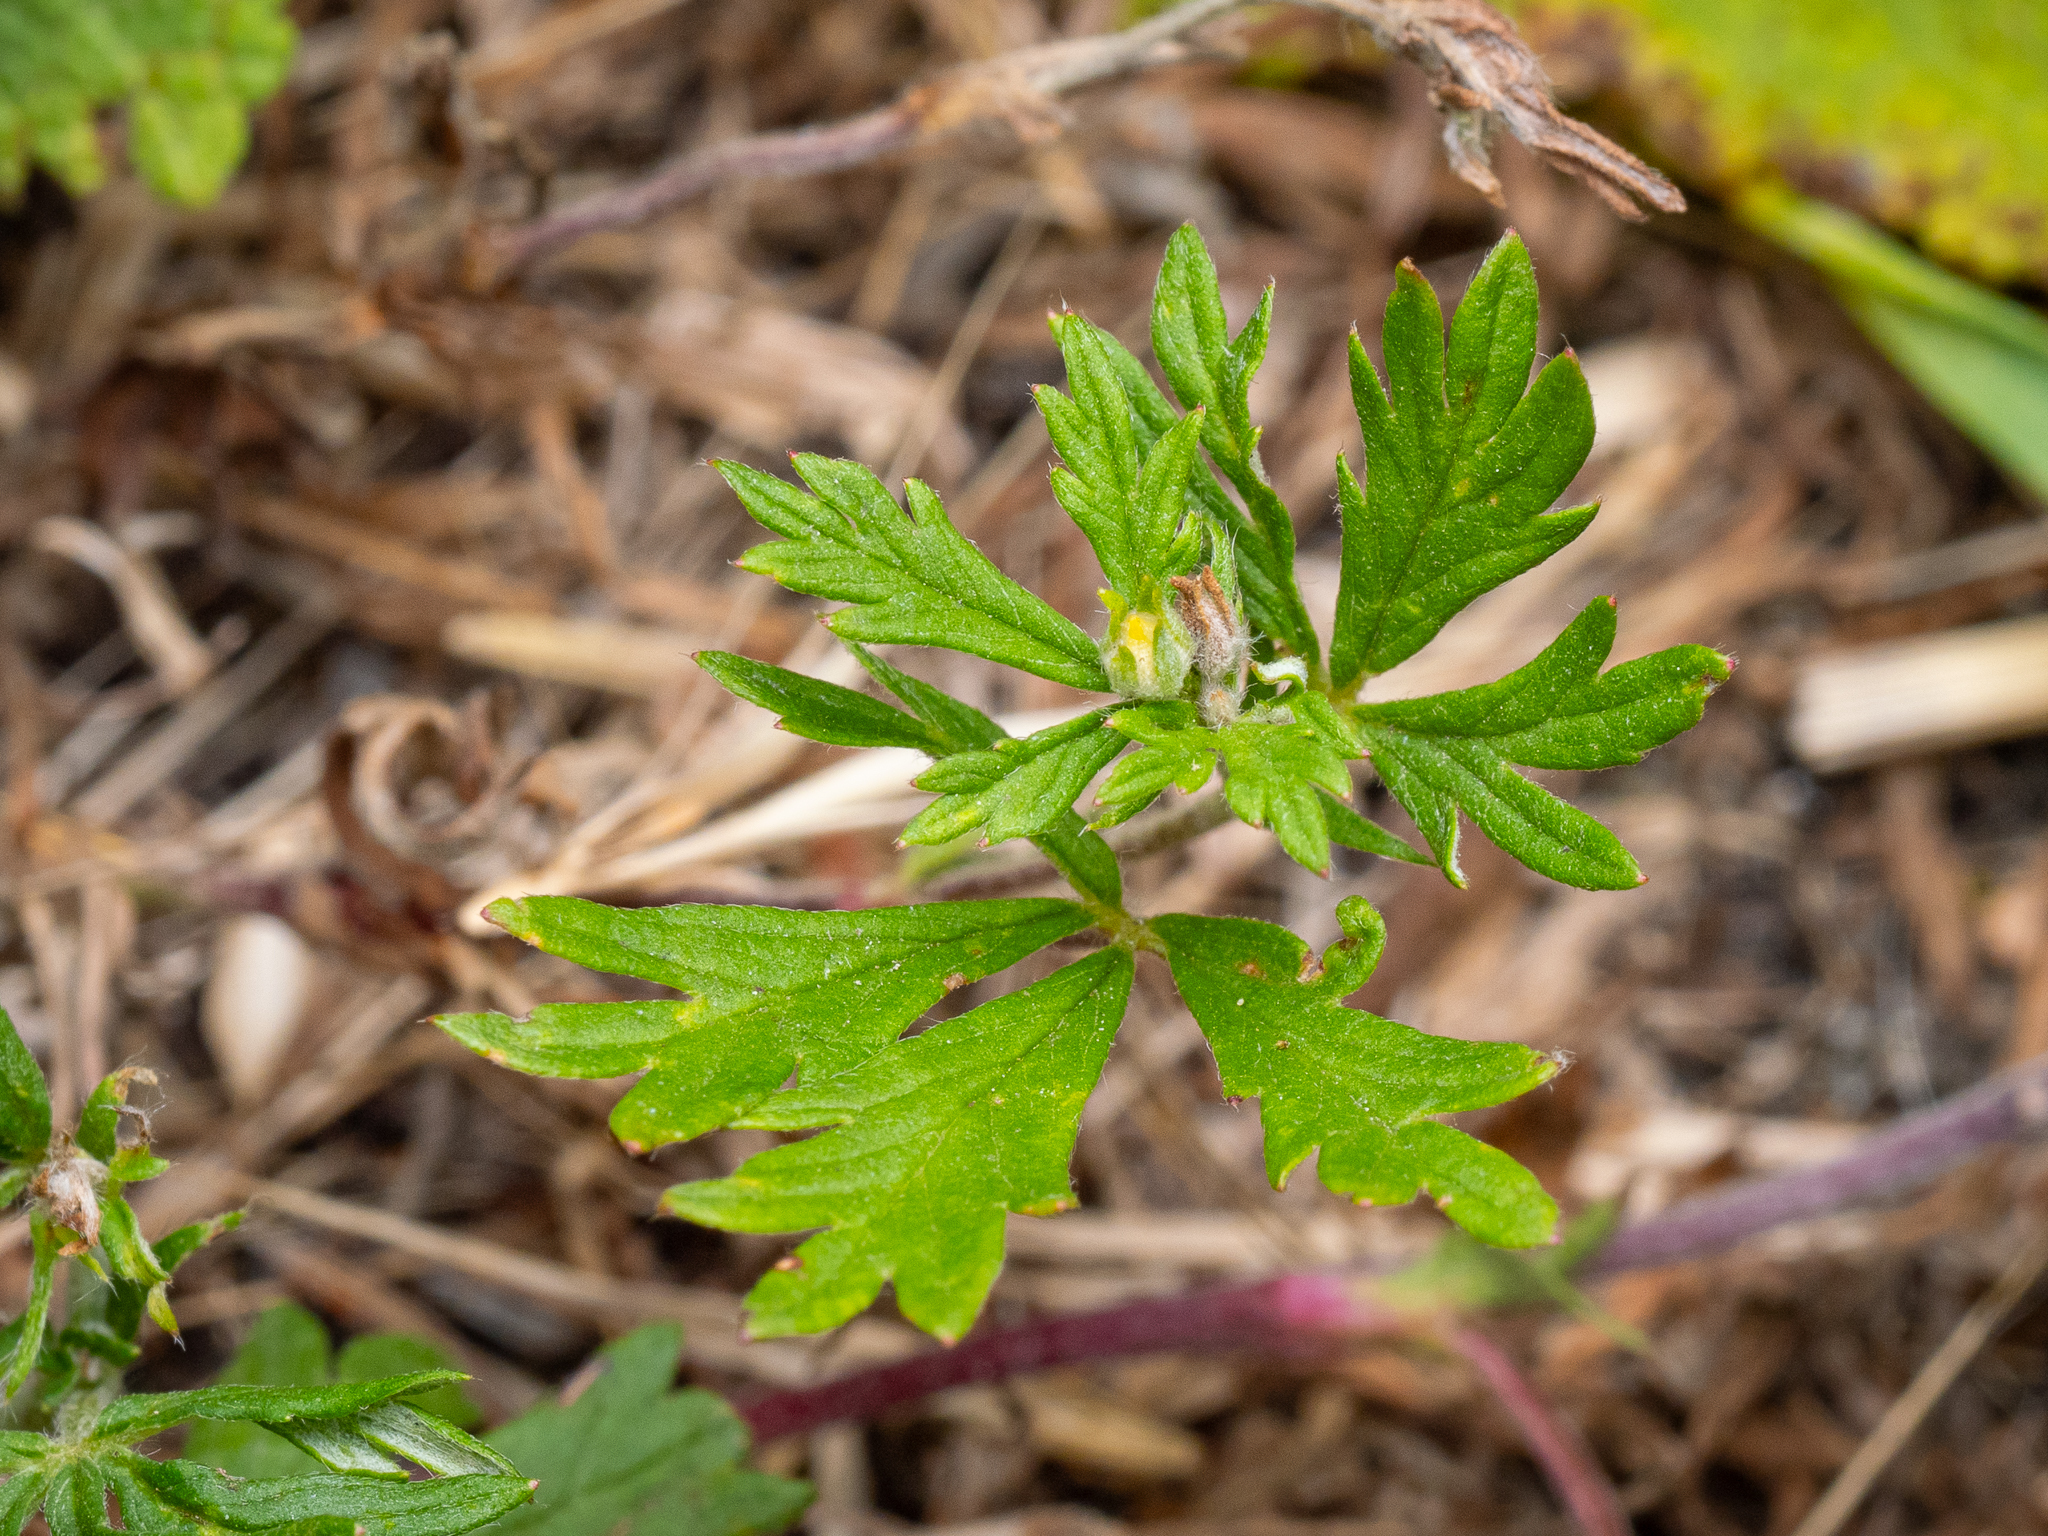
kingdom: Plantae
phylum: Tracheophyta
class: Magnoliopsida
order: Rosales
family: Rosaceae
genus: Potentilla
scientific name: Potentilla argentea
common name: Hoary cinquefoil
